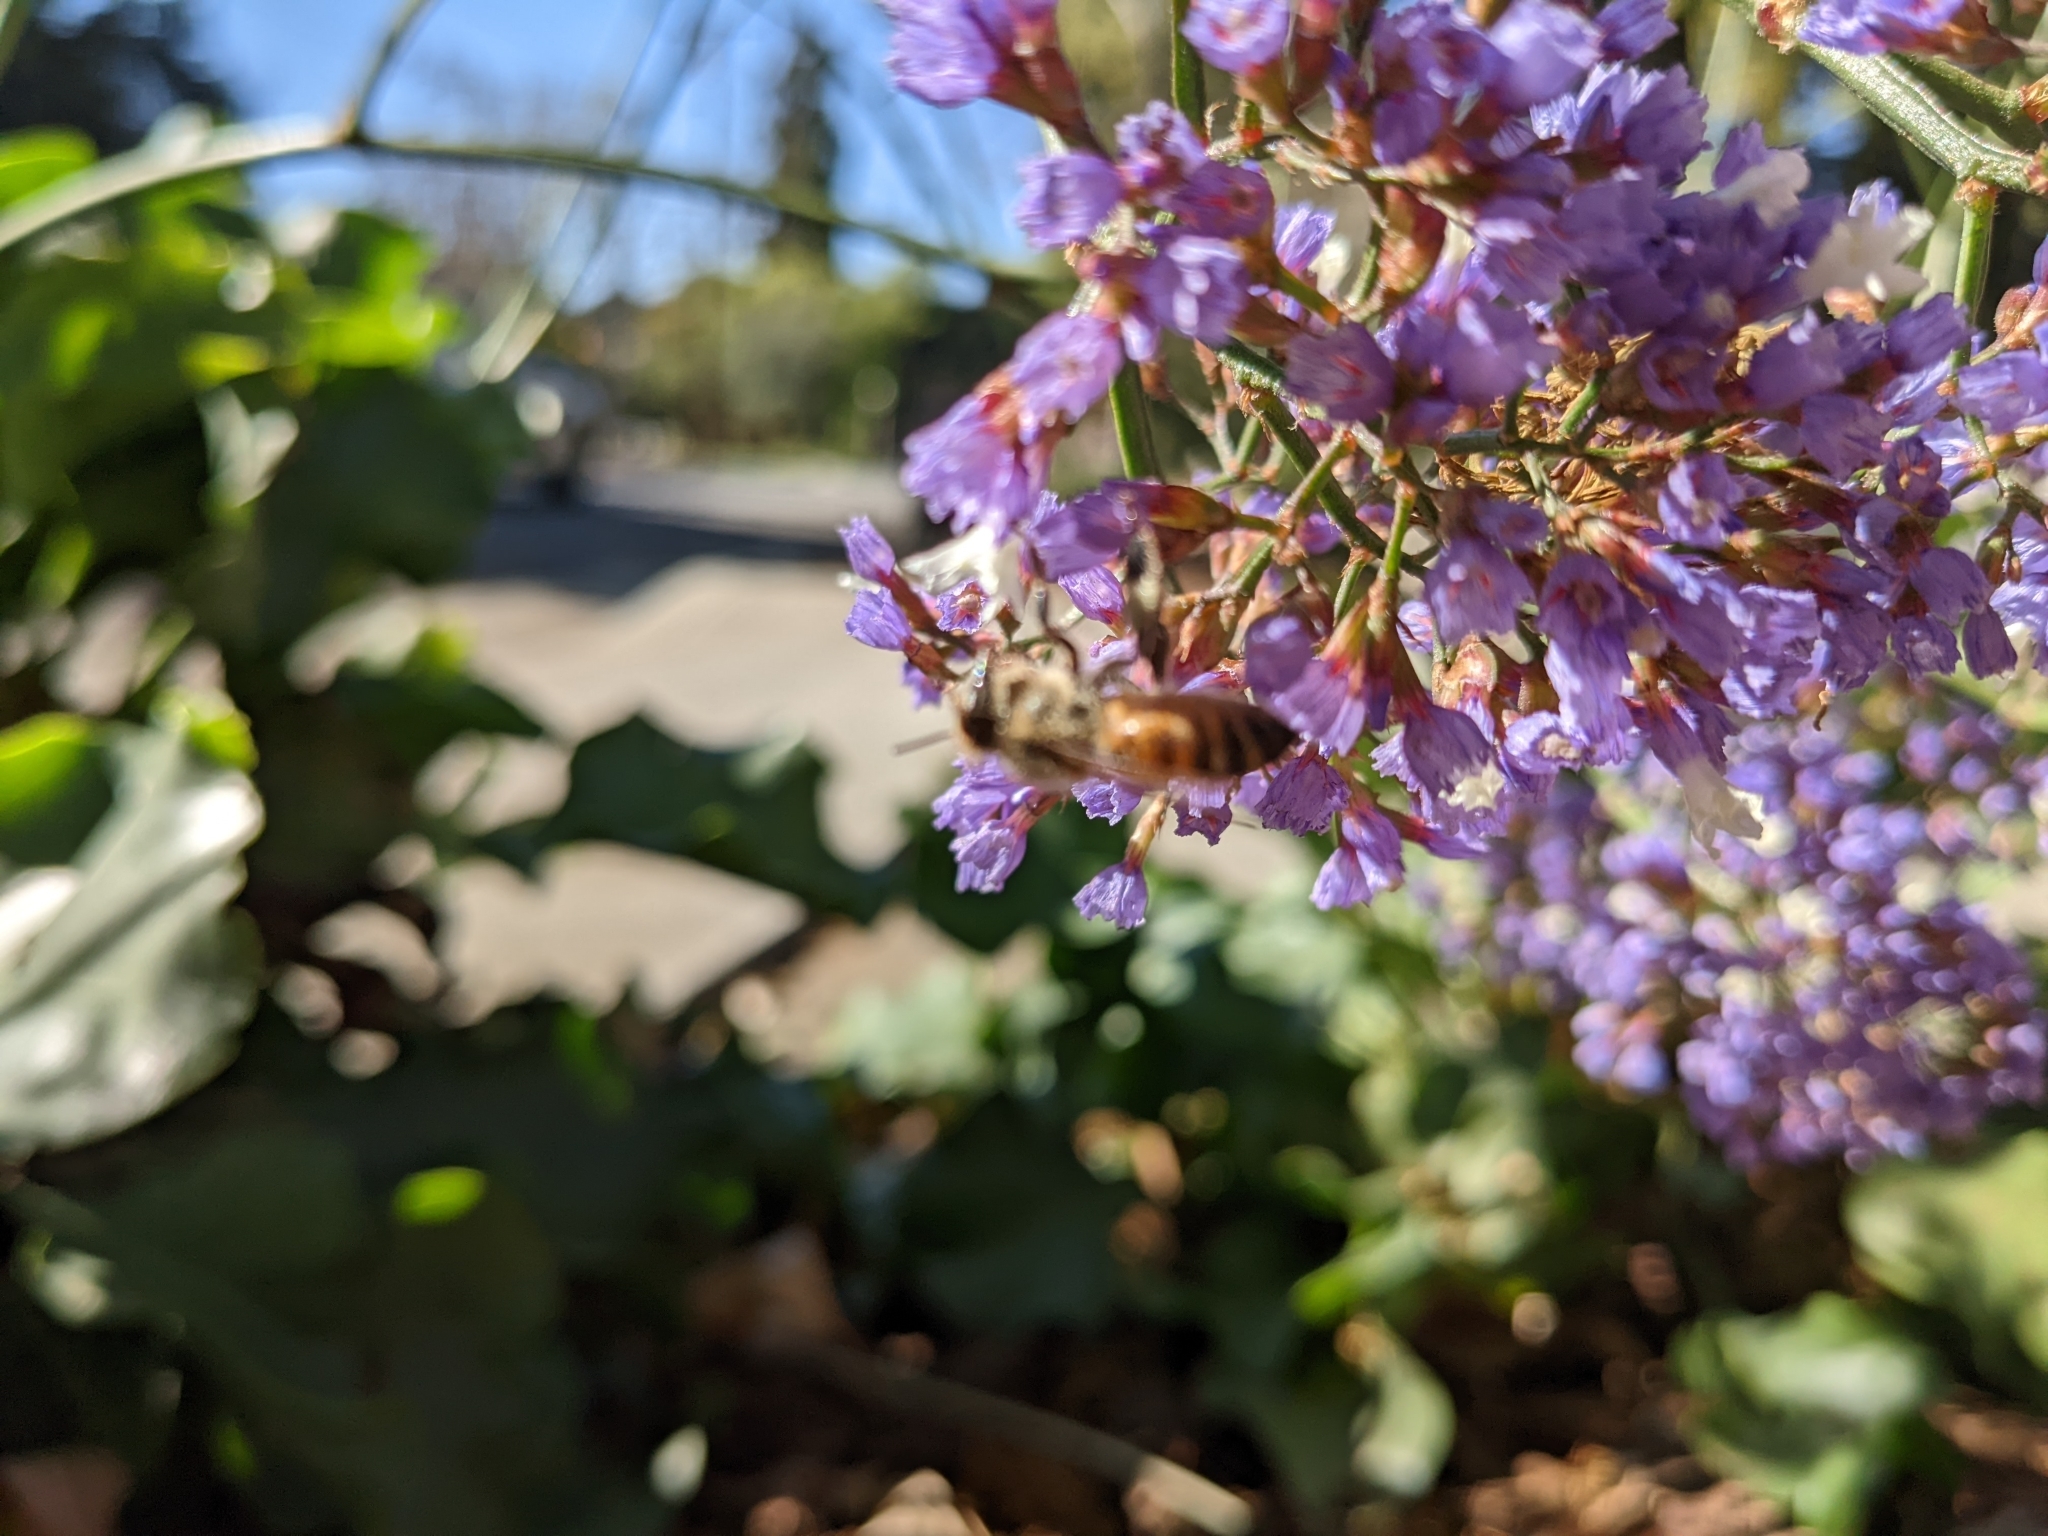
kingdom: Animalia
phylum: Arthropoda
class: Insecta
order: Hymenoptera
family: Apidae
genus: Apis
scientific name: Apis mellifera
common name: Honey bee
